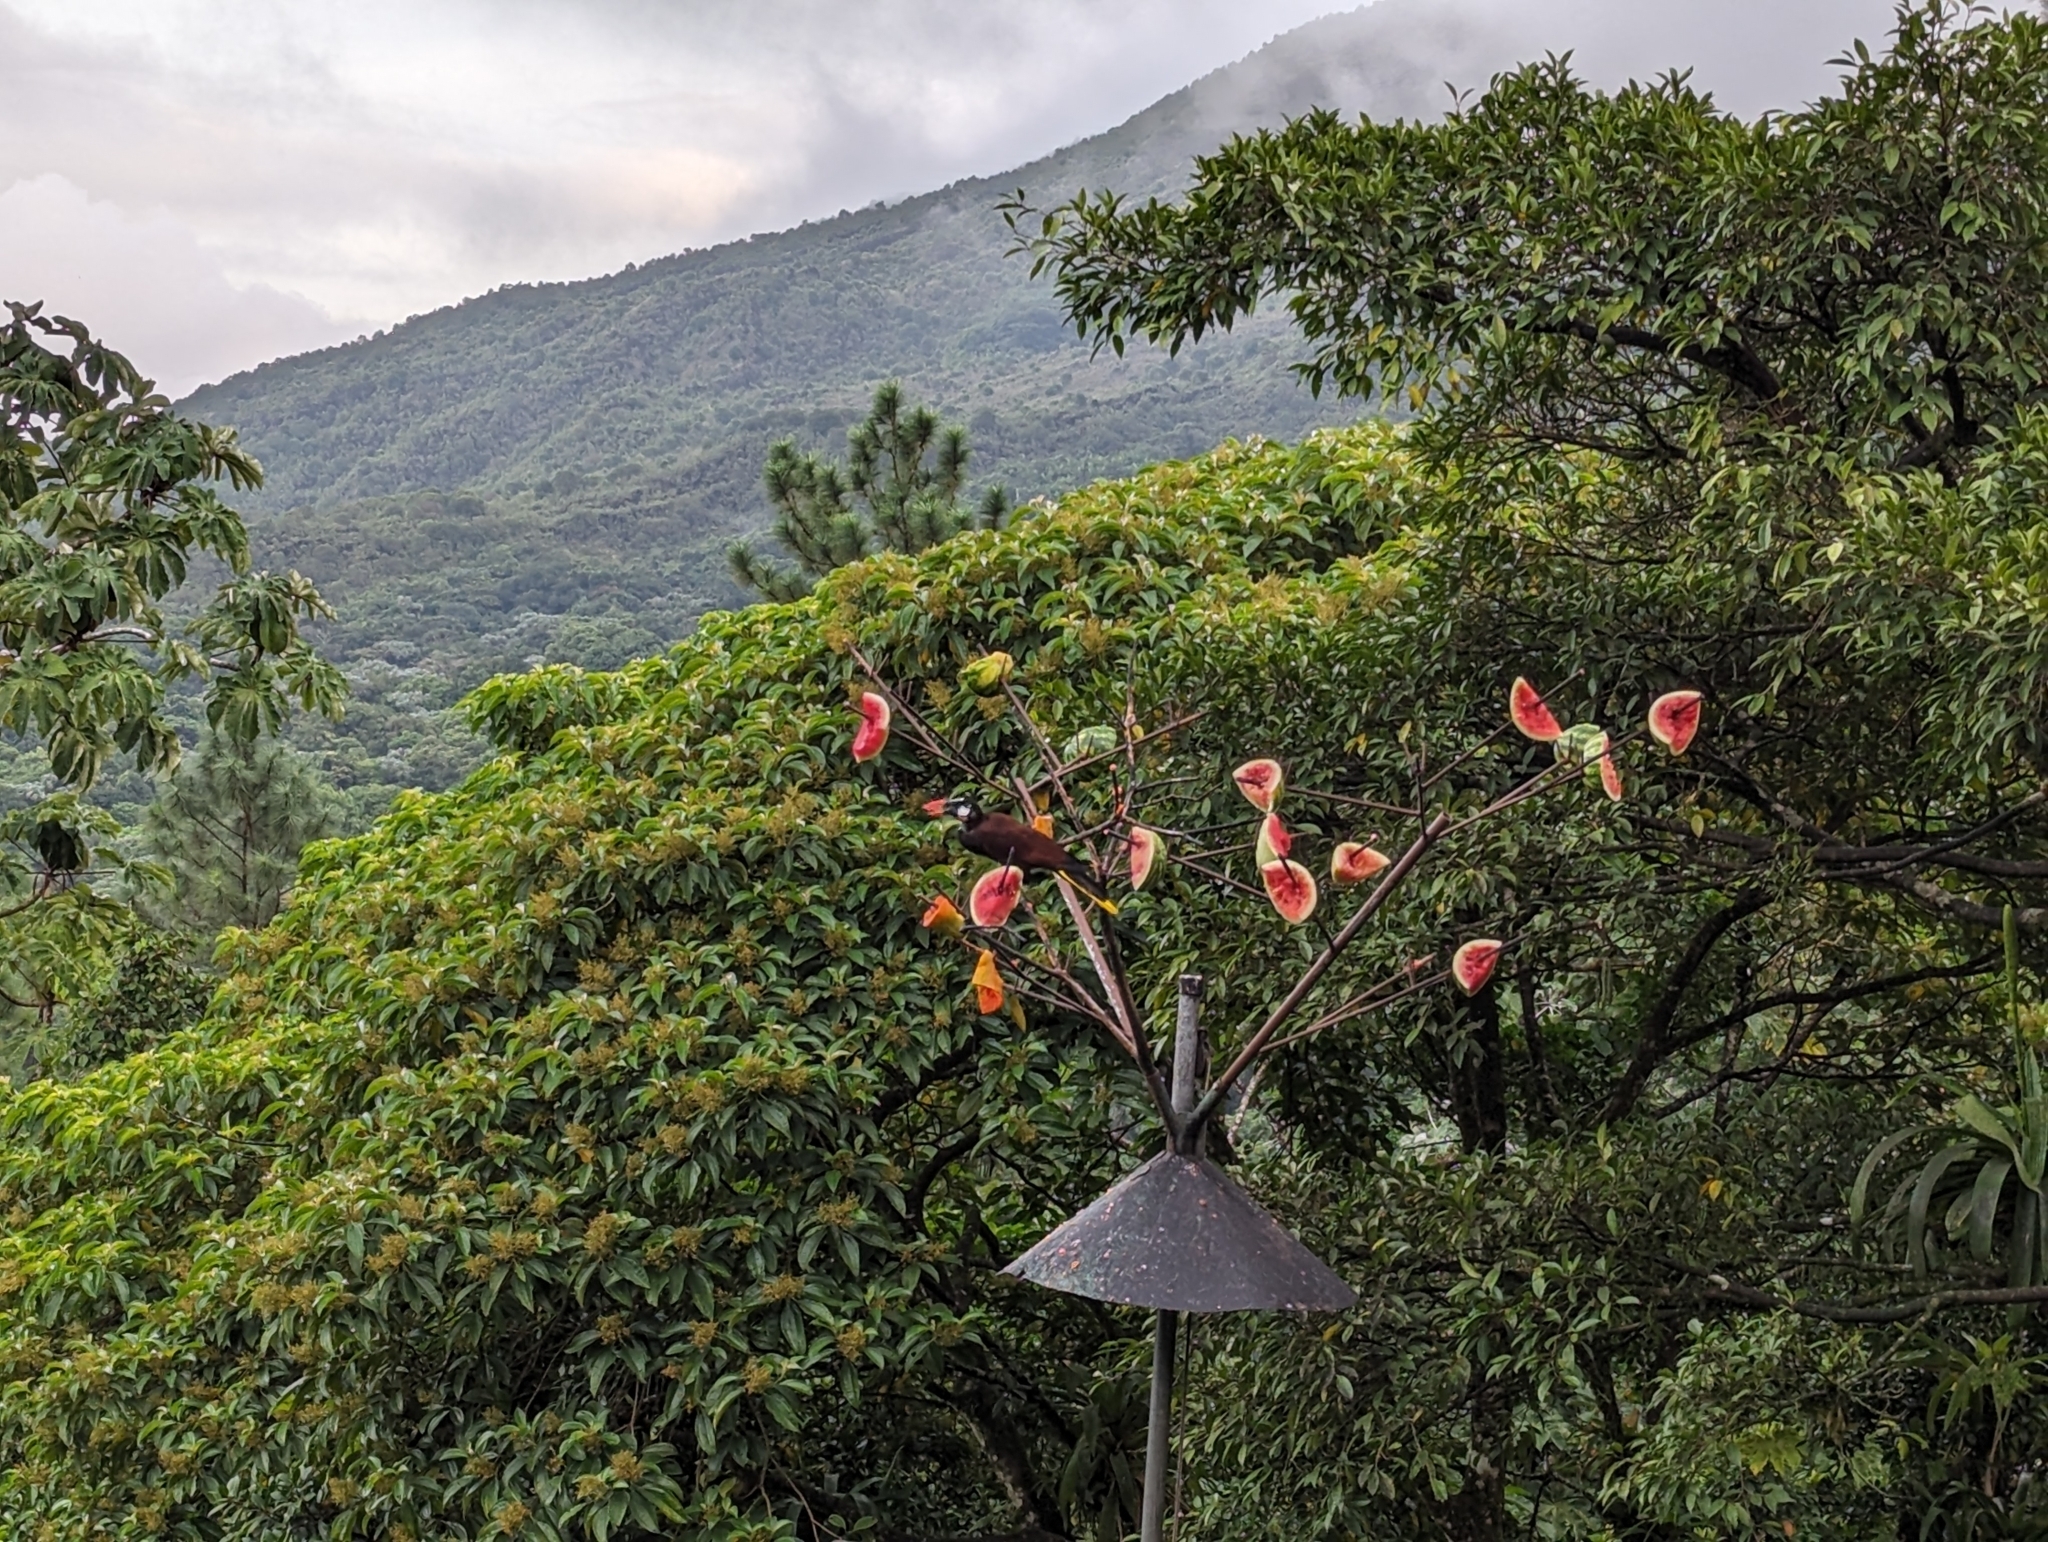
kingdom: Animalia
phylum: Chordata
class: Aves
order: Passeriformes
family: Icteridae
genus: Psarocolius
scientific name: Psarocolius montezuma
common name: Montezuma oropendola
